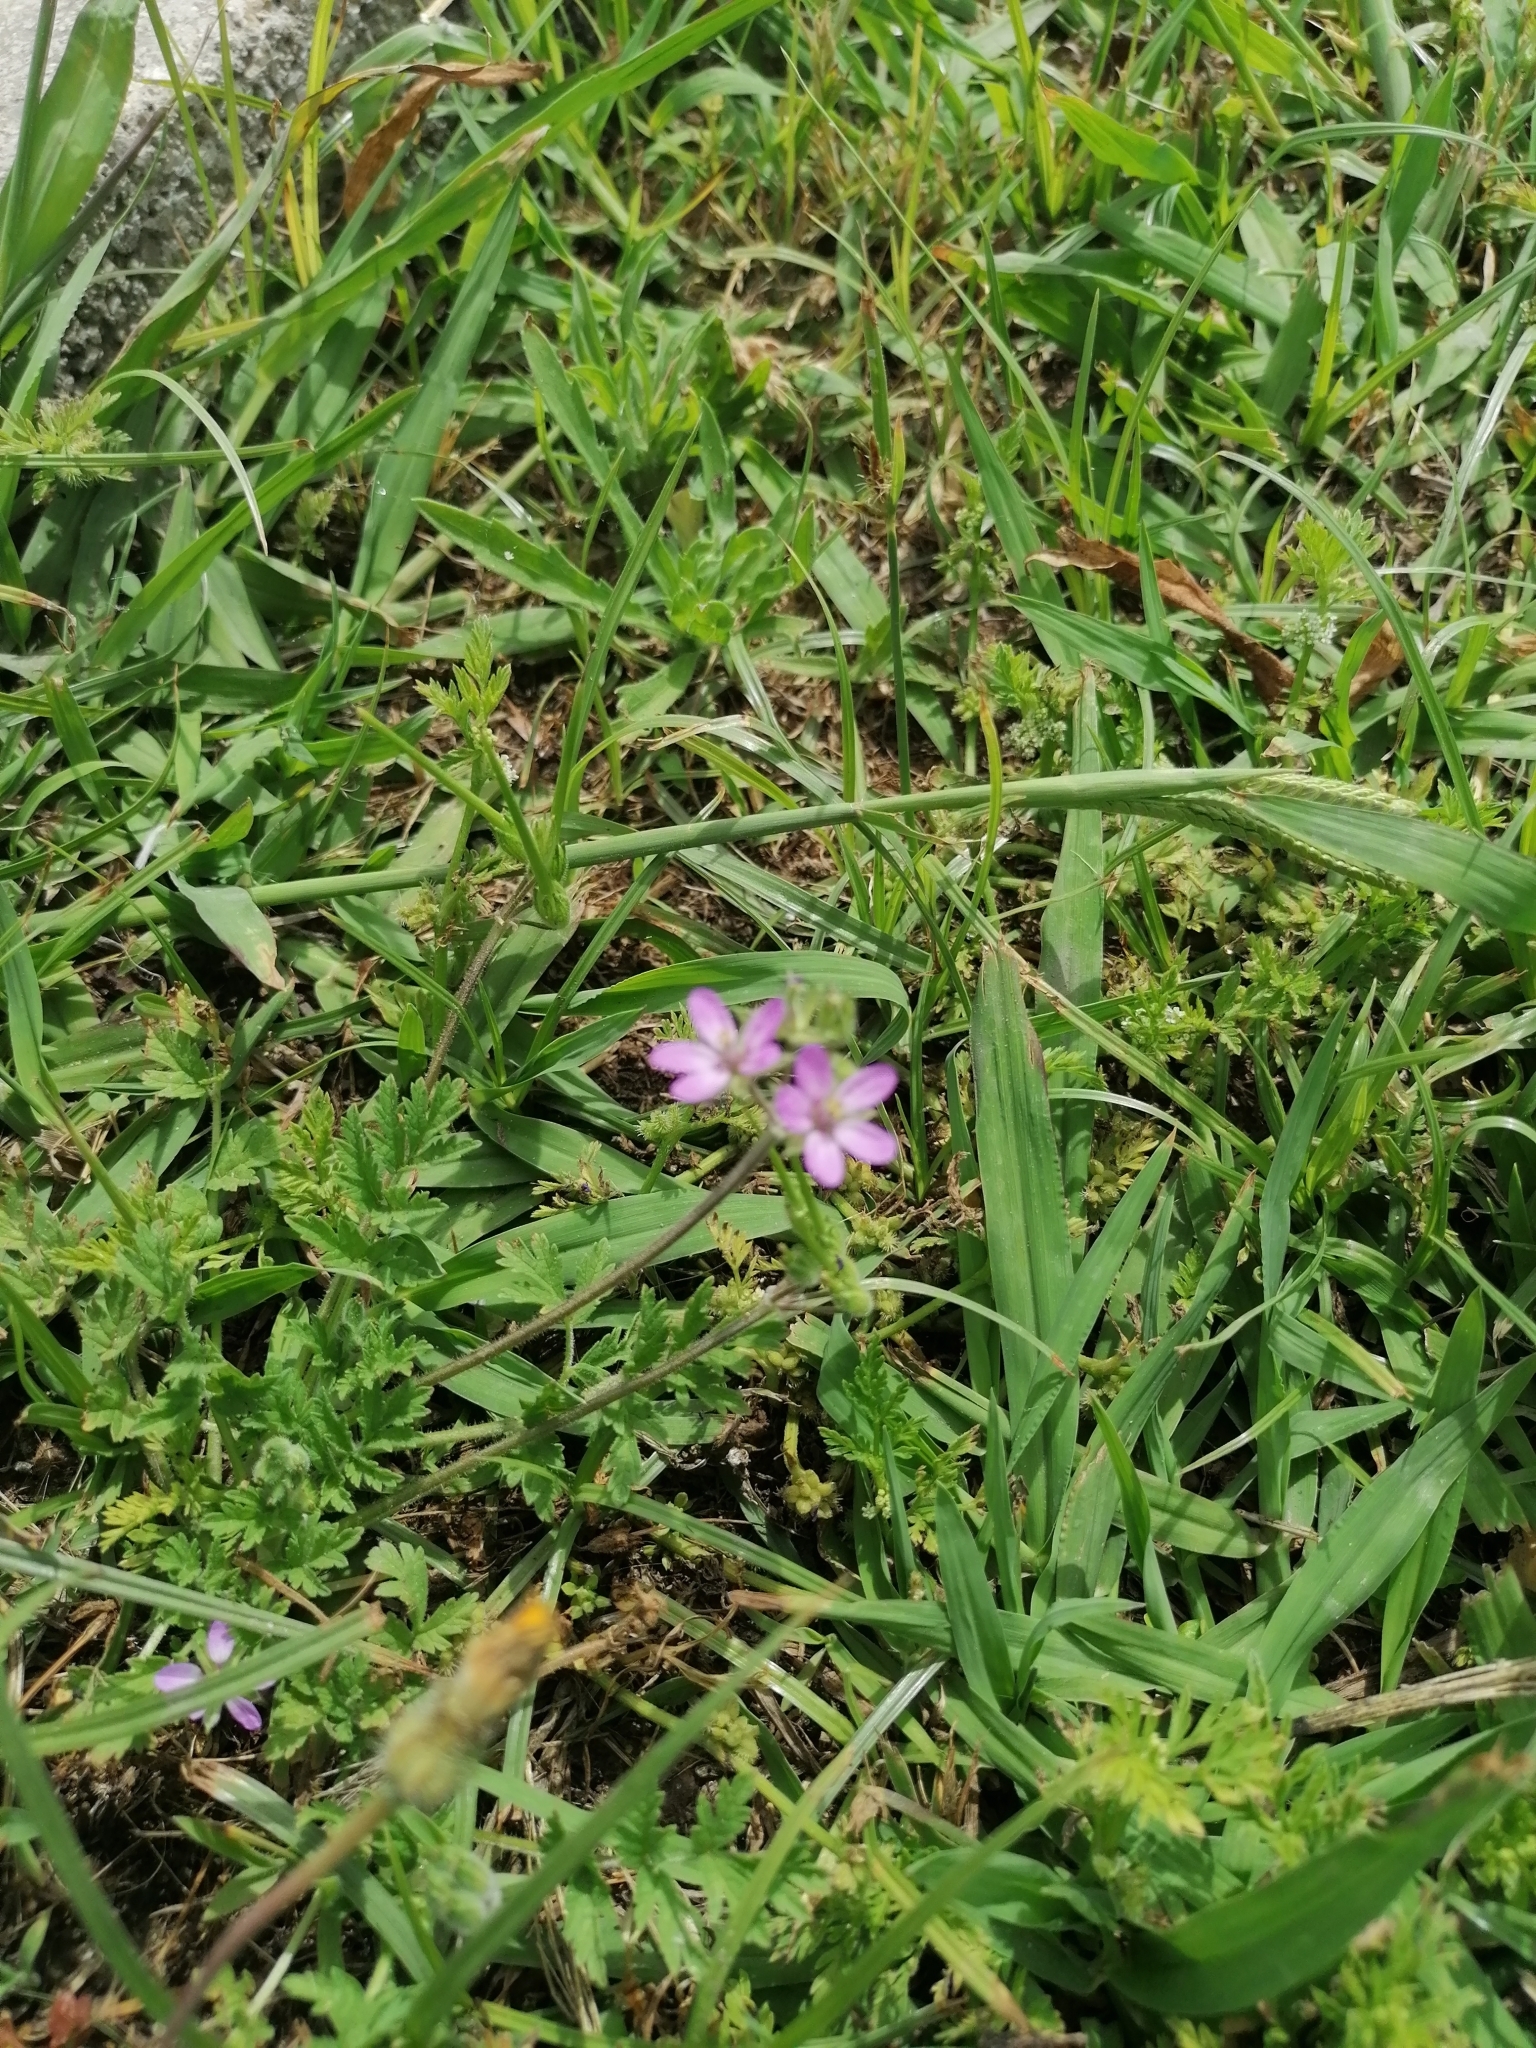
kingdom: Plantae
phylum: Tracheophyta
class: Magnoliopsida
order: Asterales
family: Asteraceae
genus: Cynara
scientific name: Cynara humilis
